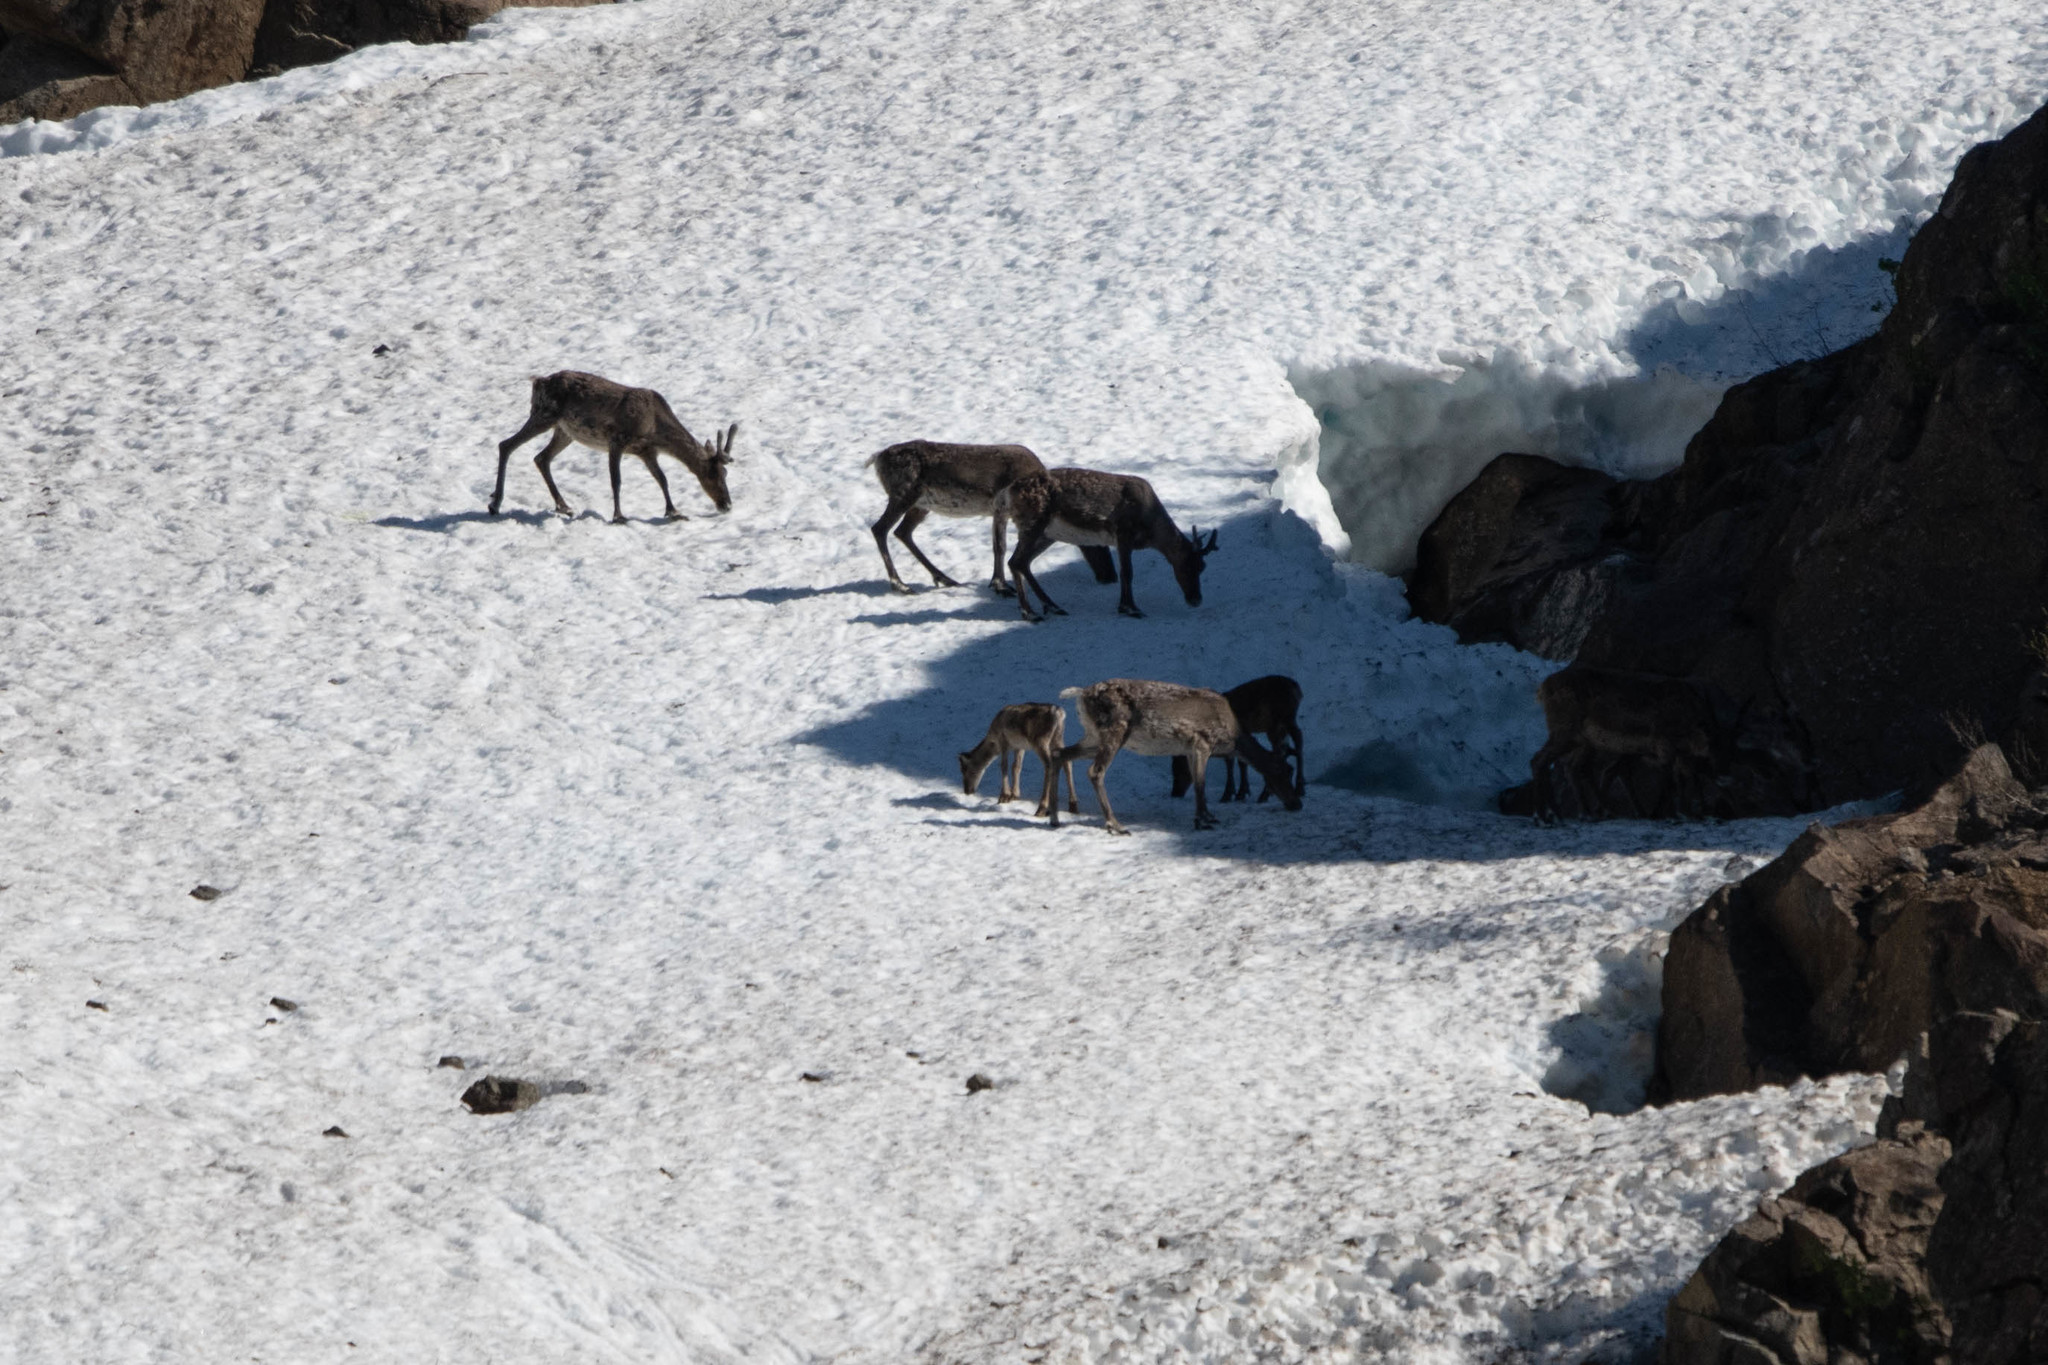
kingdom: Animalia
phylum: Chordata
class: Mammalia
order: Artiodactyla
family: Cervidae
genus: Rangifer
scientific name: Rangifer tarandus
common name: Reindeer
